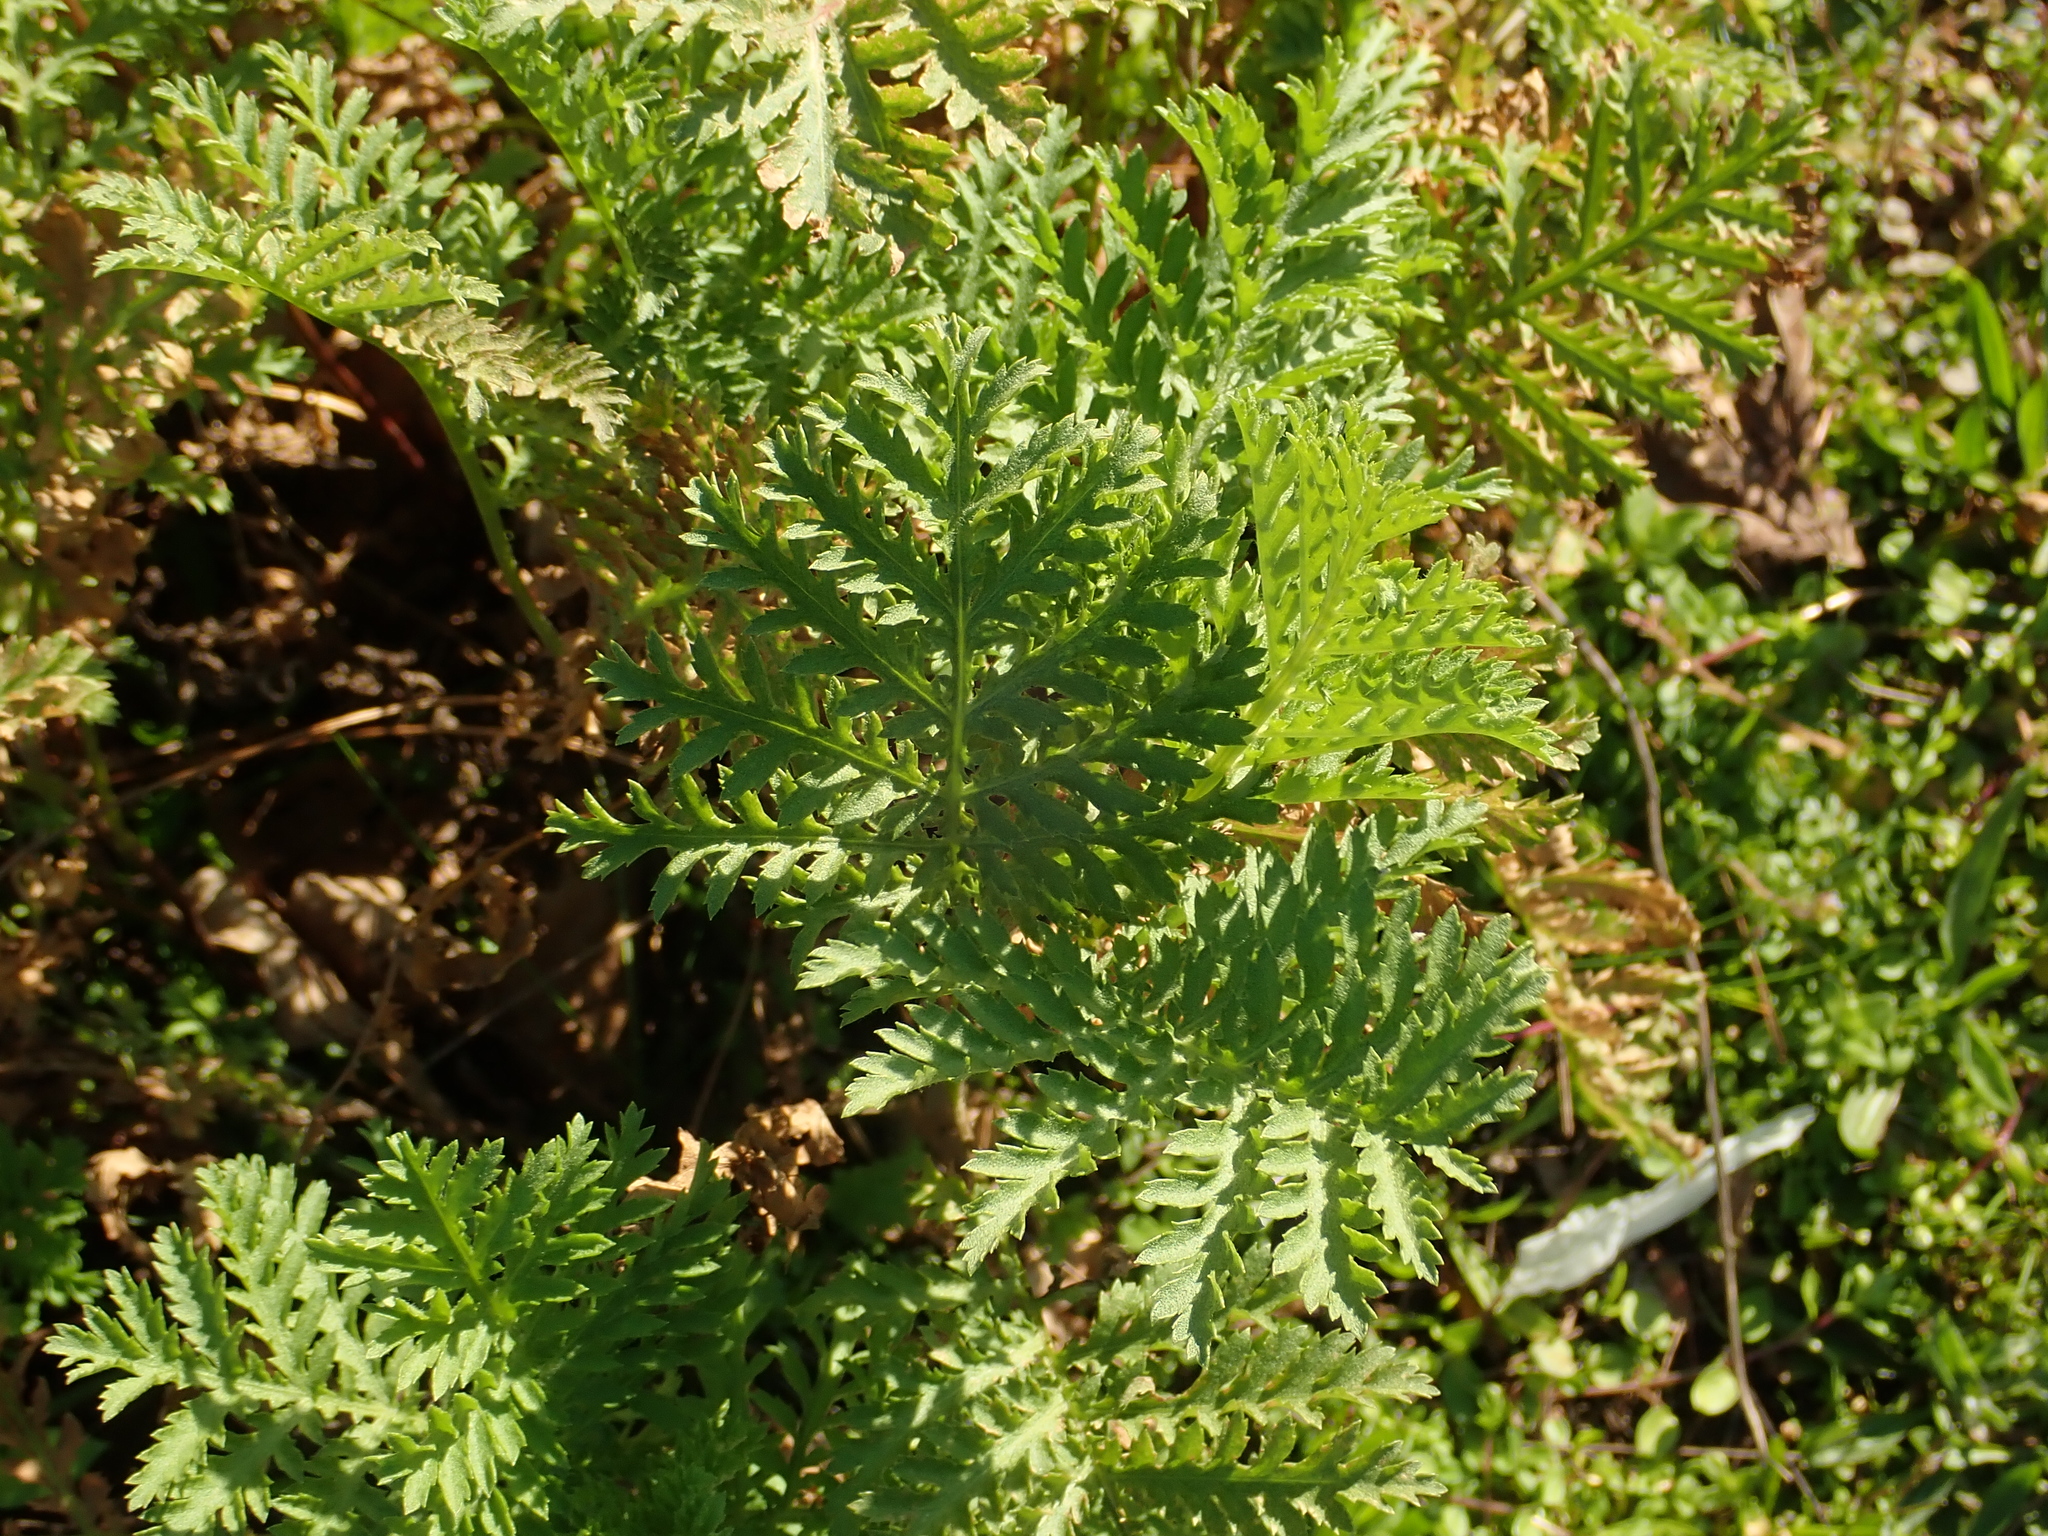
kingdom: Plantae
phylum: Tracheophyta
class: Magnoliopsida
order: Asterales
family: Asteraceae
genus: Tanacetum
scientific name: Tanacetum vulgare
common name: Common tansy
